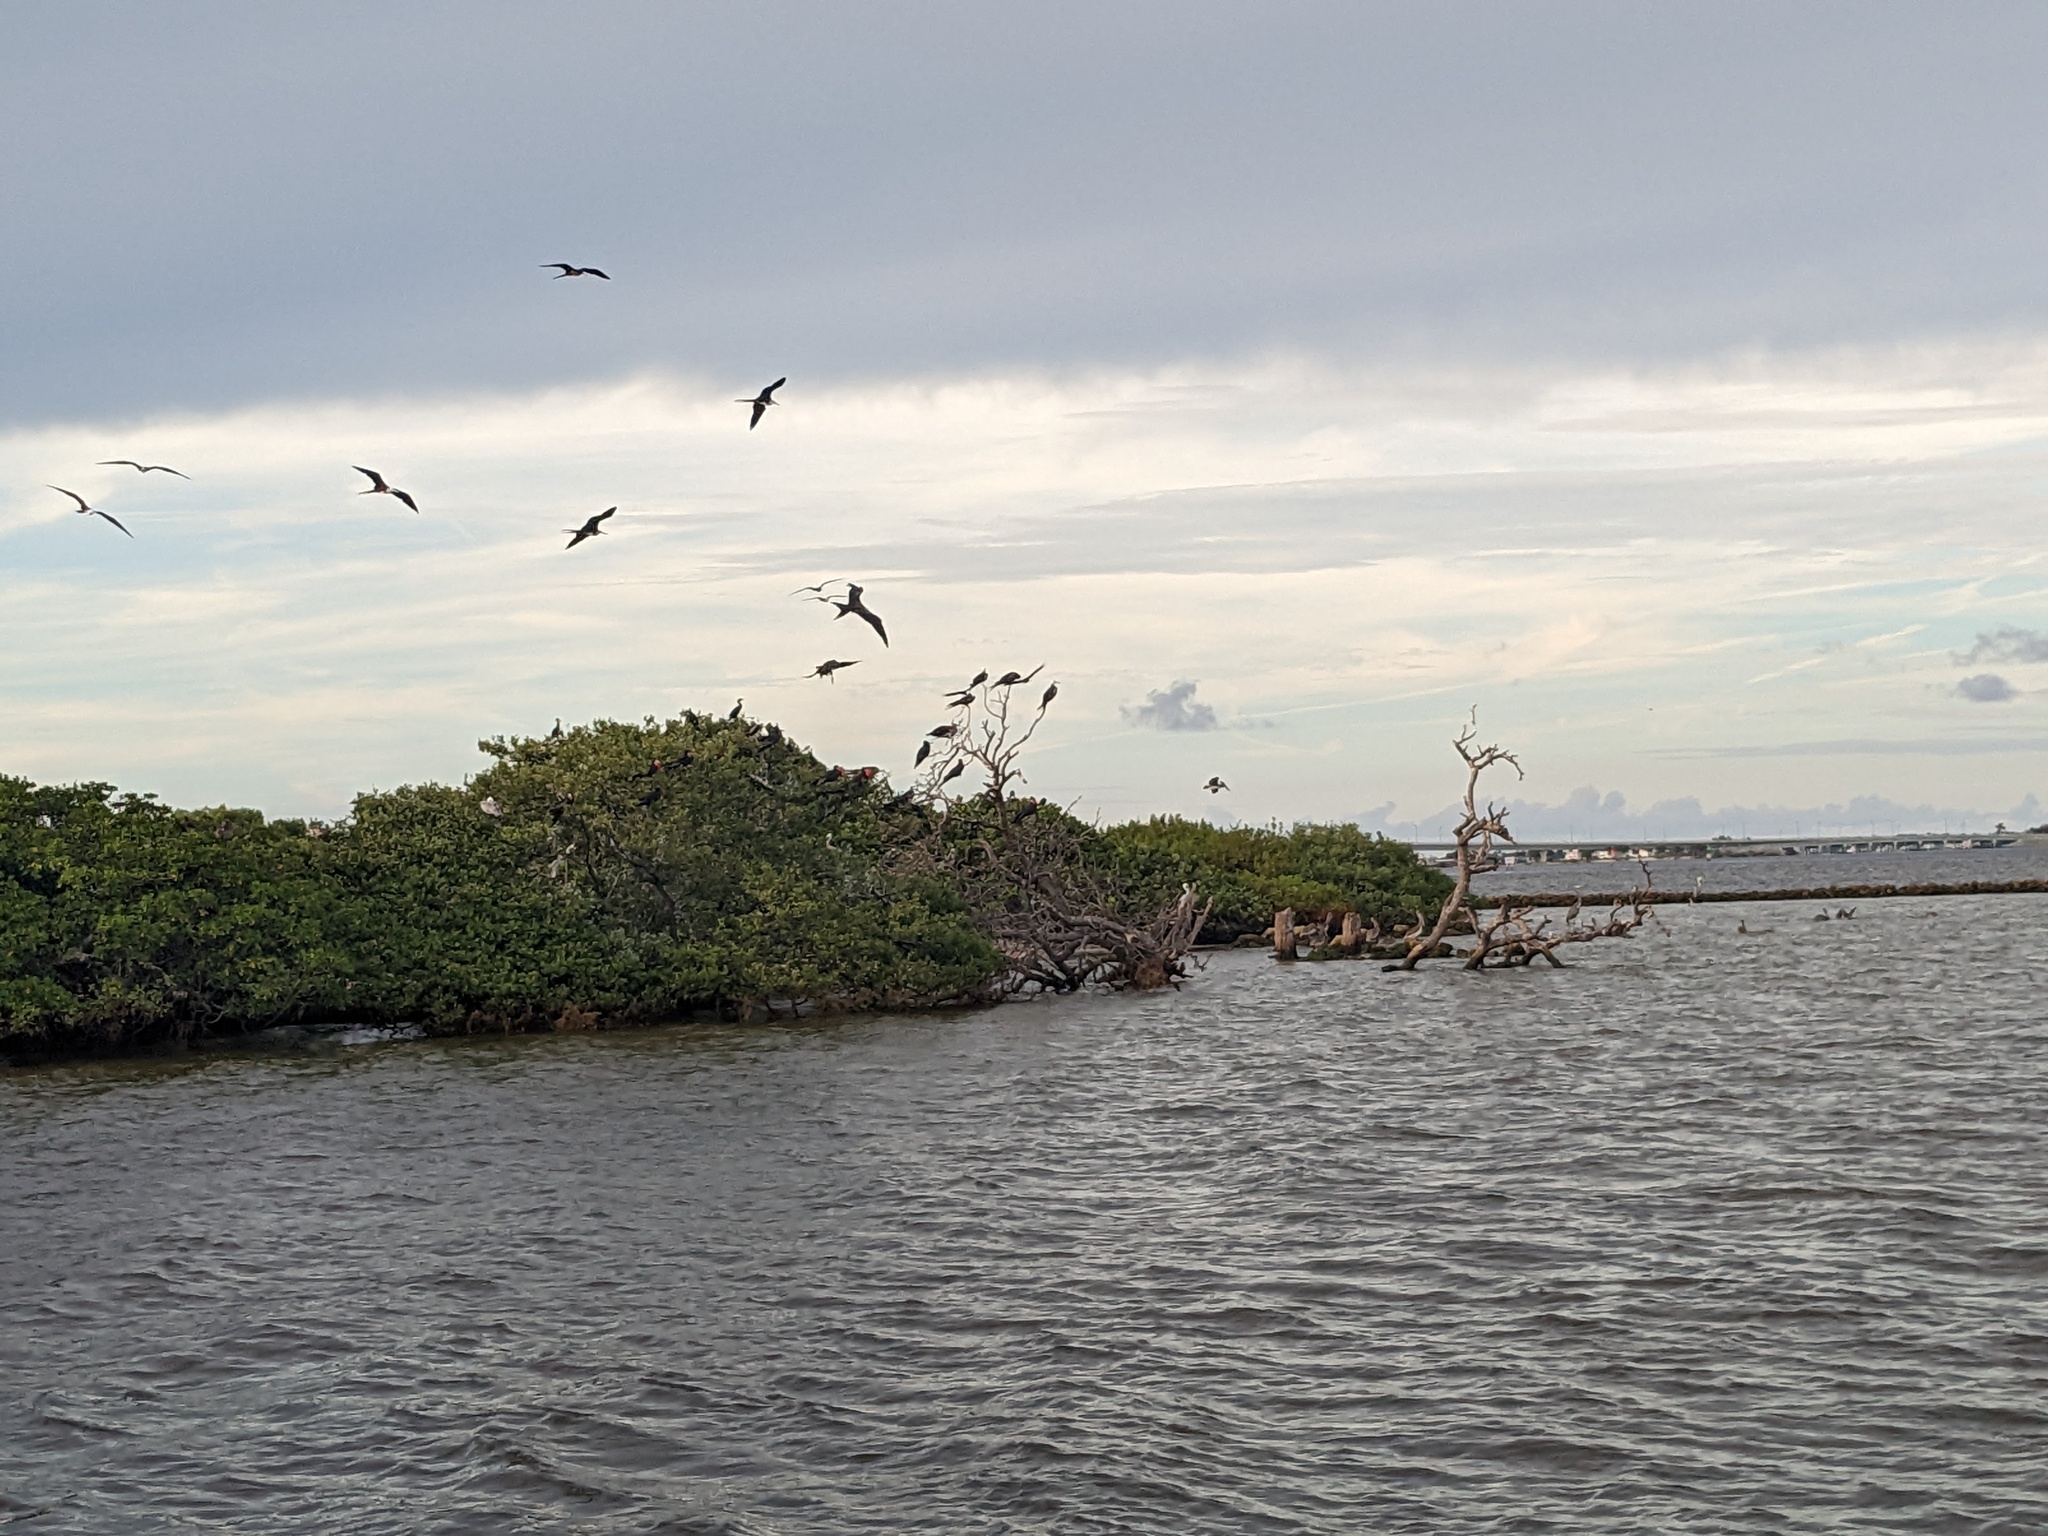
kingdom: Animalia
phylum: Chordata
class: Aves
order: Suliformes
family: Fregatidae
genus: Fregata
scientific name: Fregata magnificens
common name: Magnificent frigatebird
